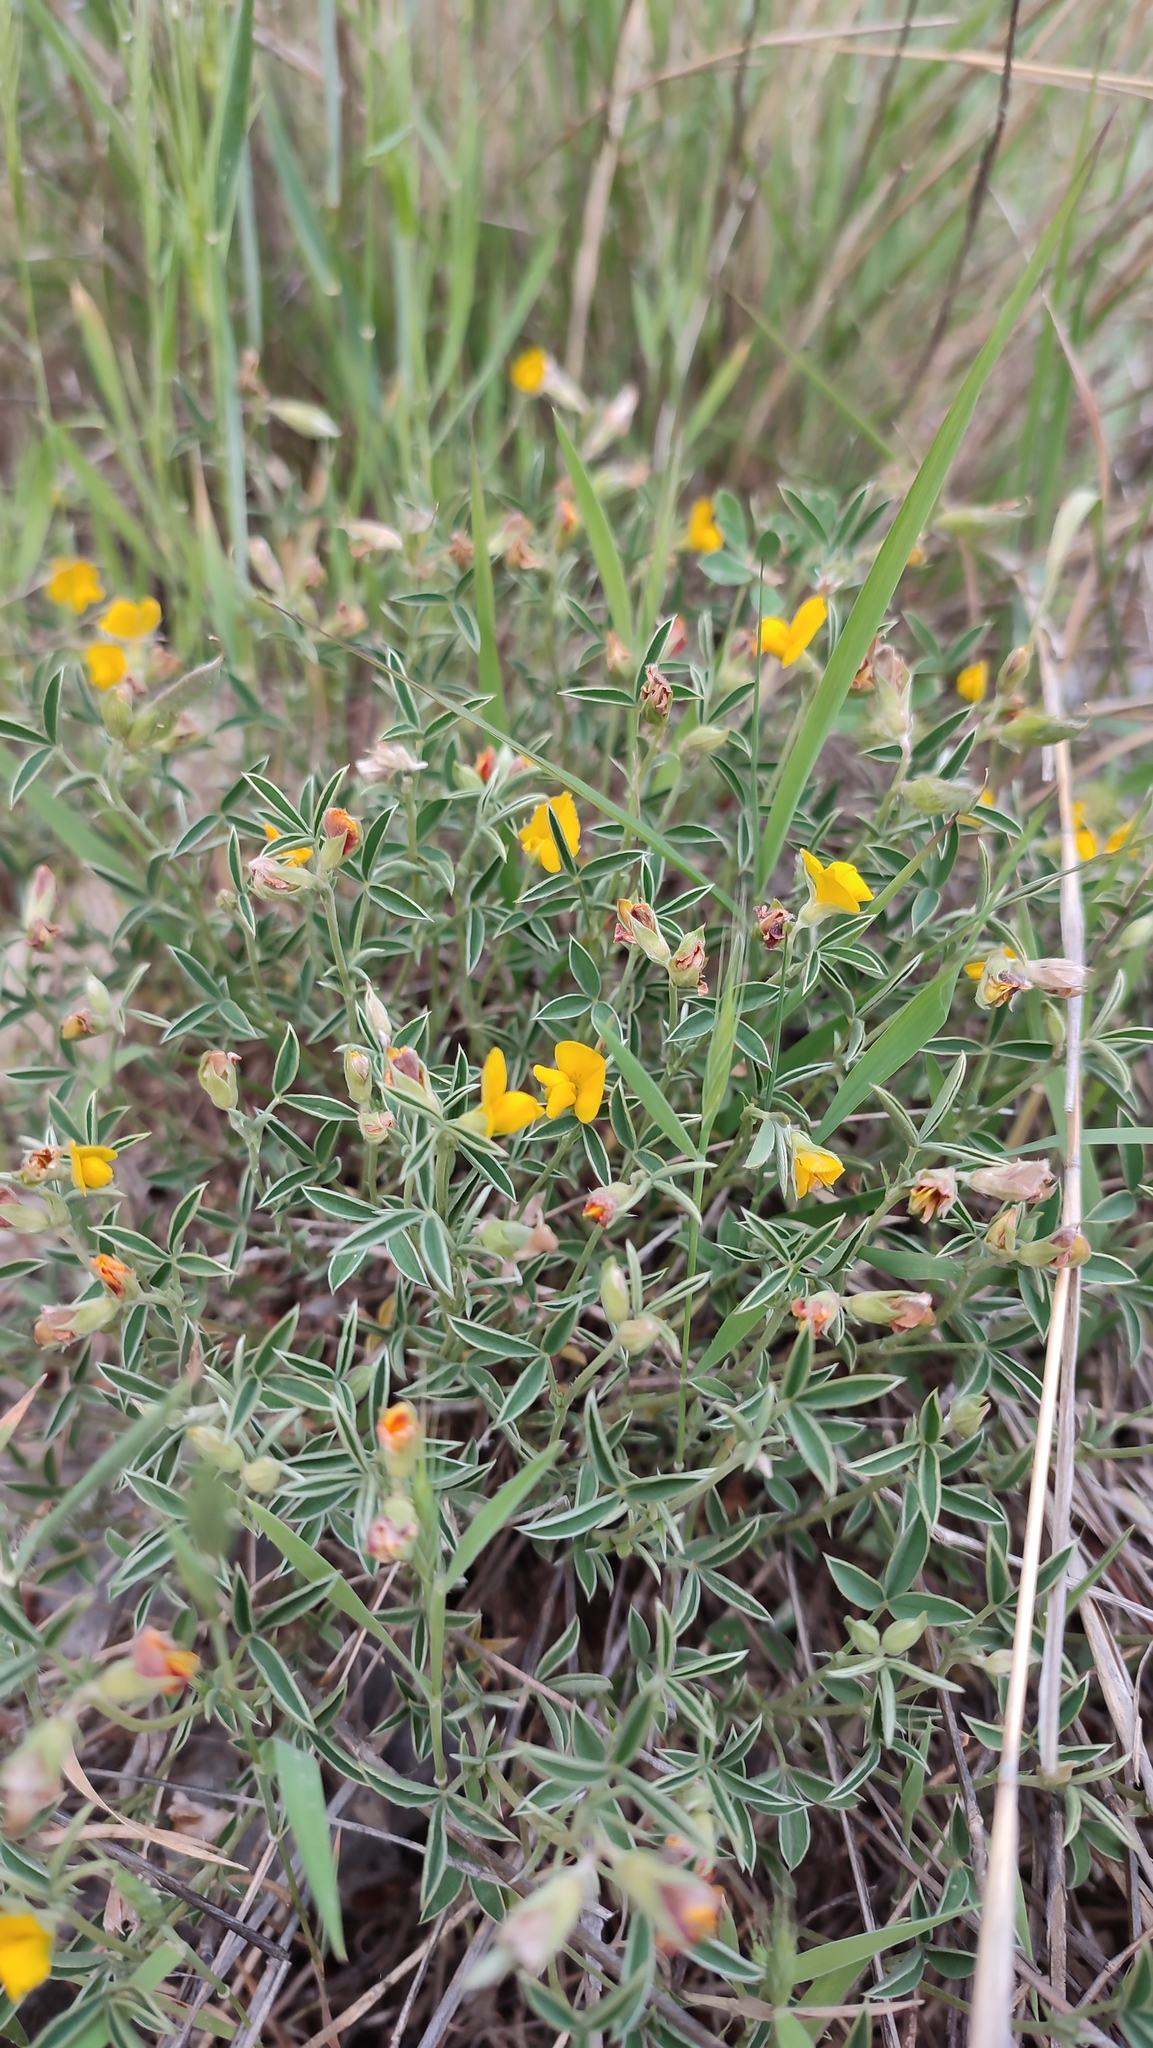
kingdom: Plantae
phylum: Tracheophyta
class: Magnoliopsida
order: Fabales
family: Fabaceae
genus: Argyrolobium
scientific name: Argyrolobium zanonii
